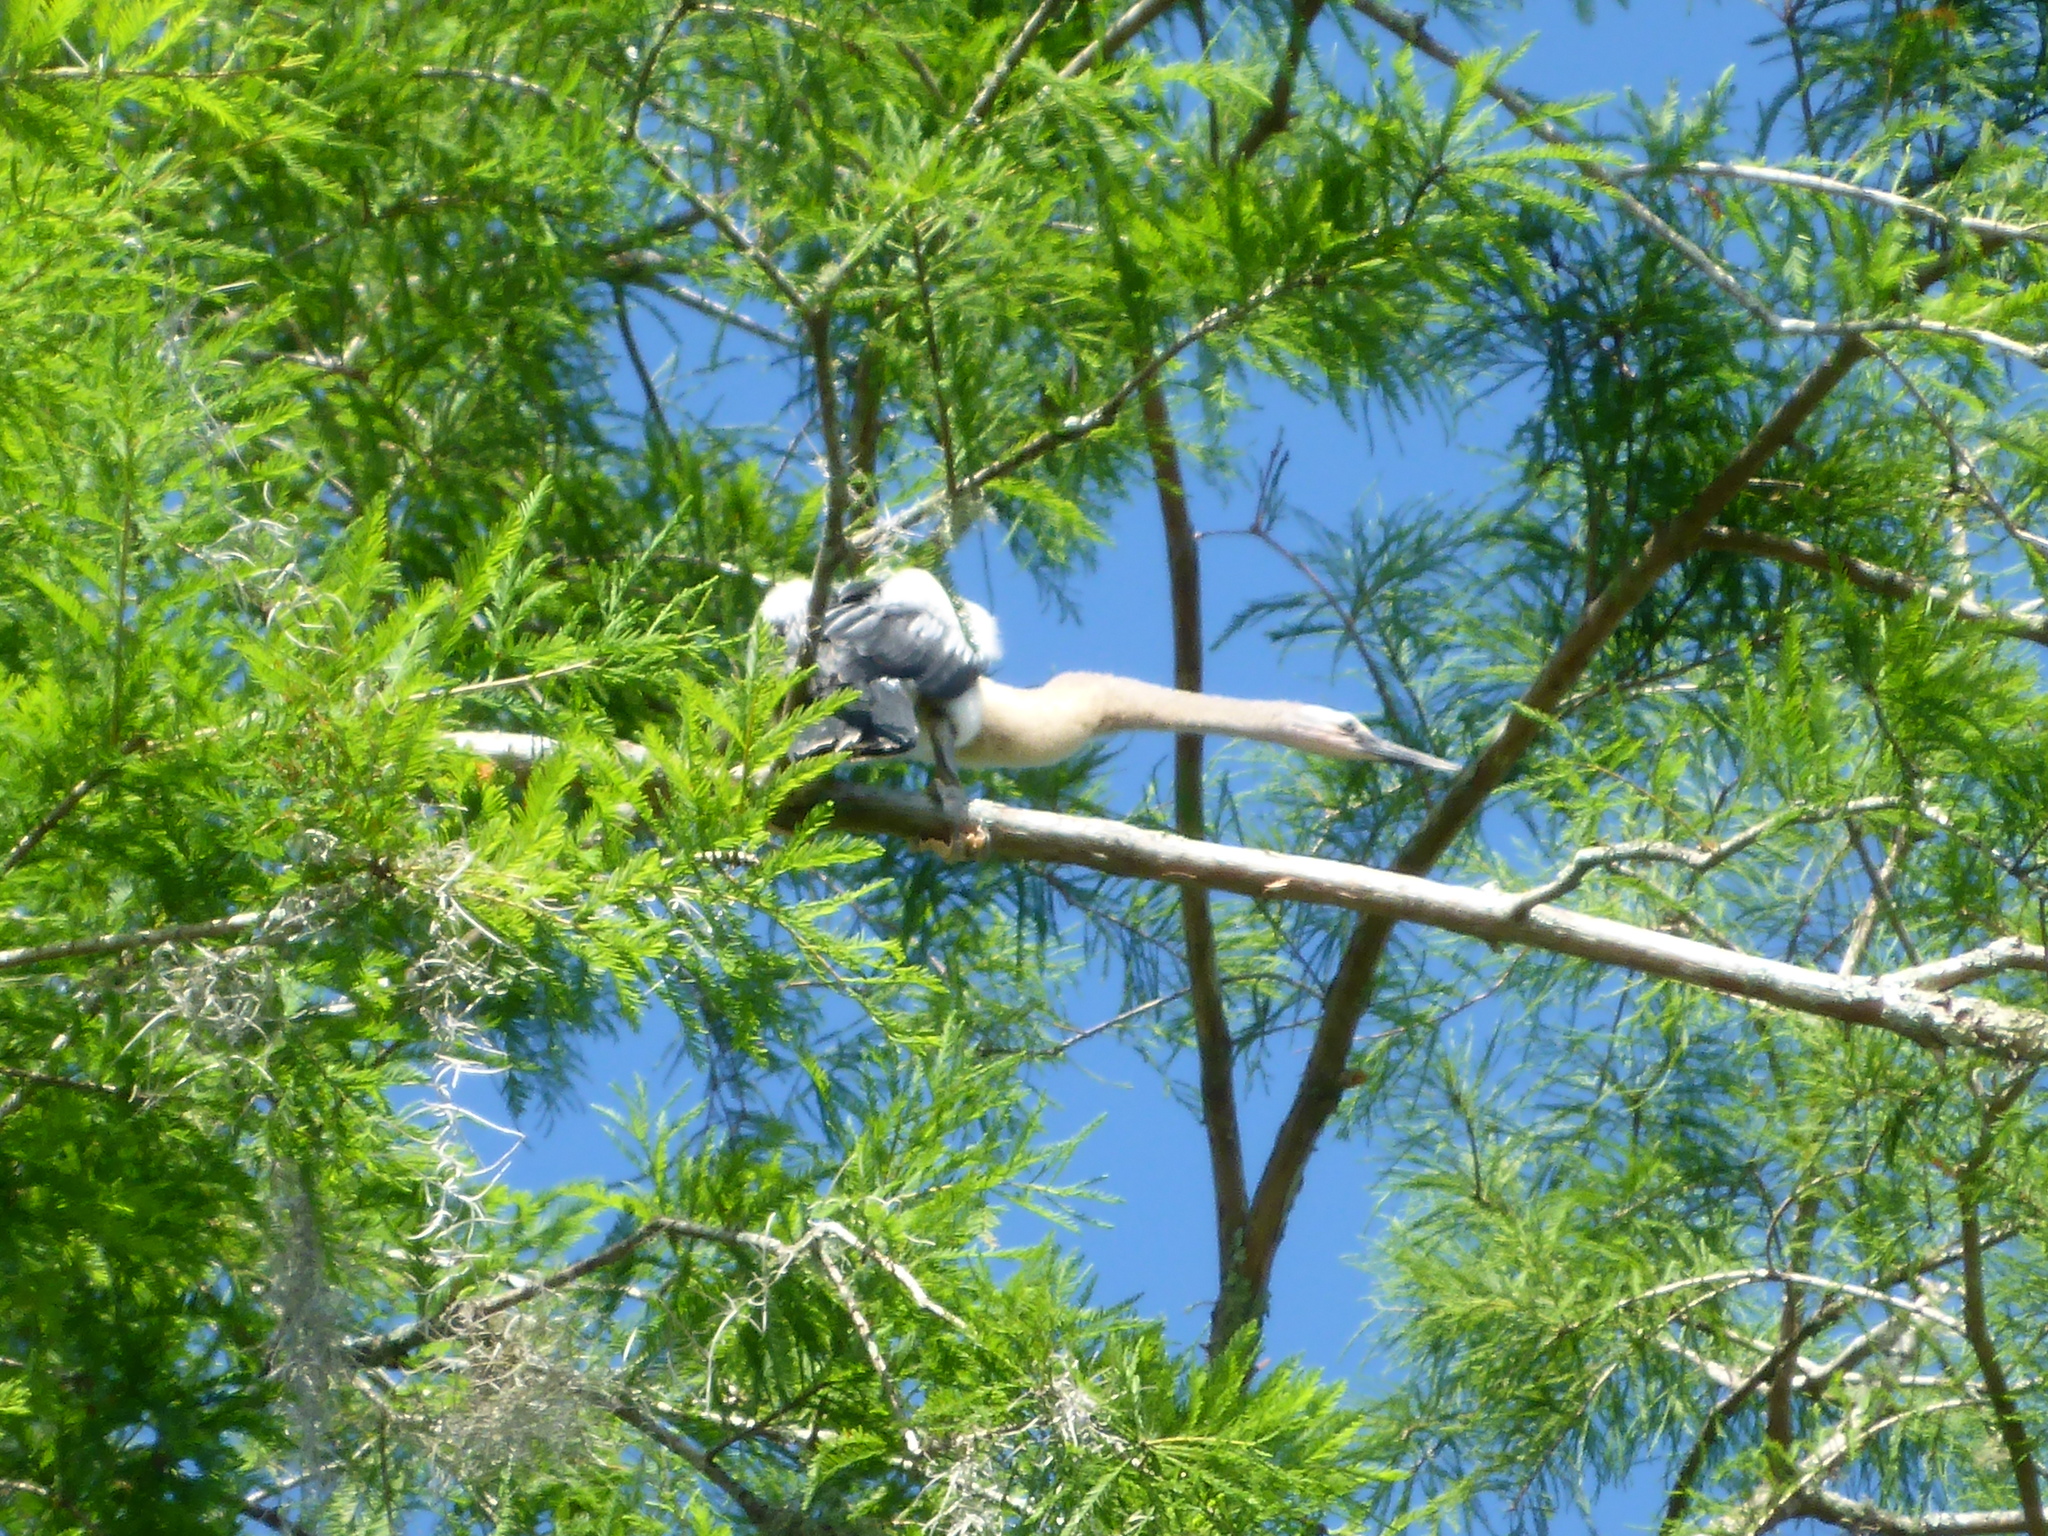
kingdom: Animalia
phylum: Chordata
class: Aves
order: Suliformes
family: Anhingidae
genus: Anhinga
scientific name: Anhinga anhinga
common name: Anhinga
